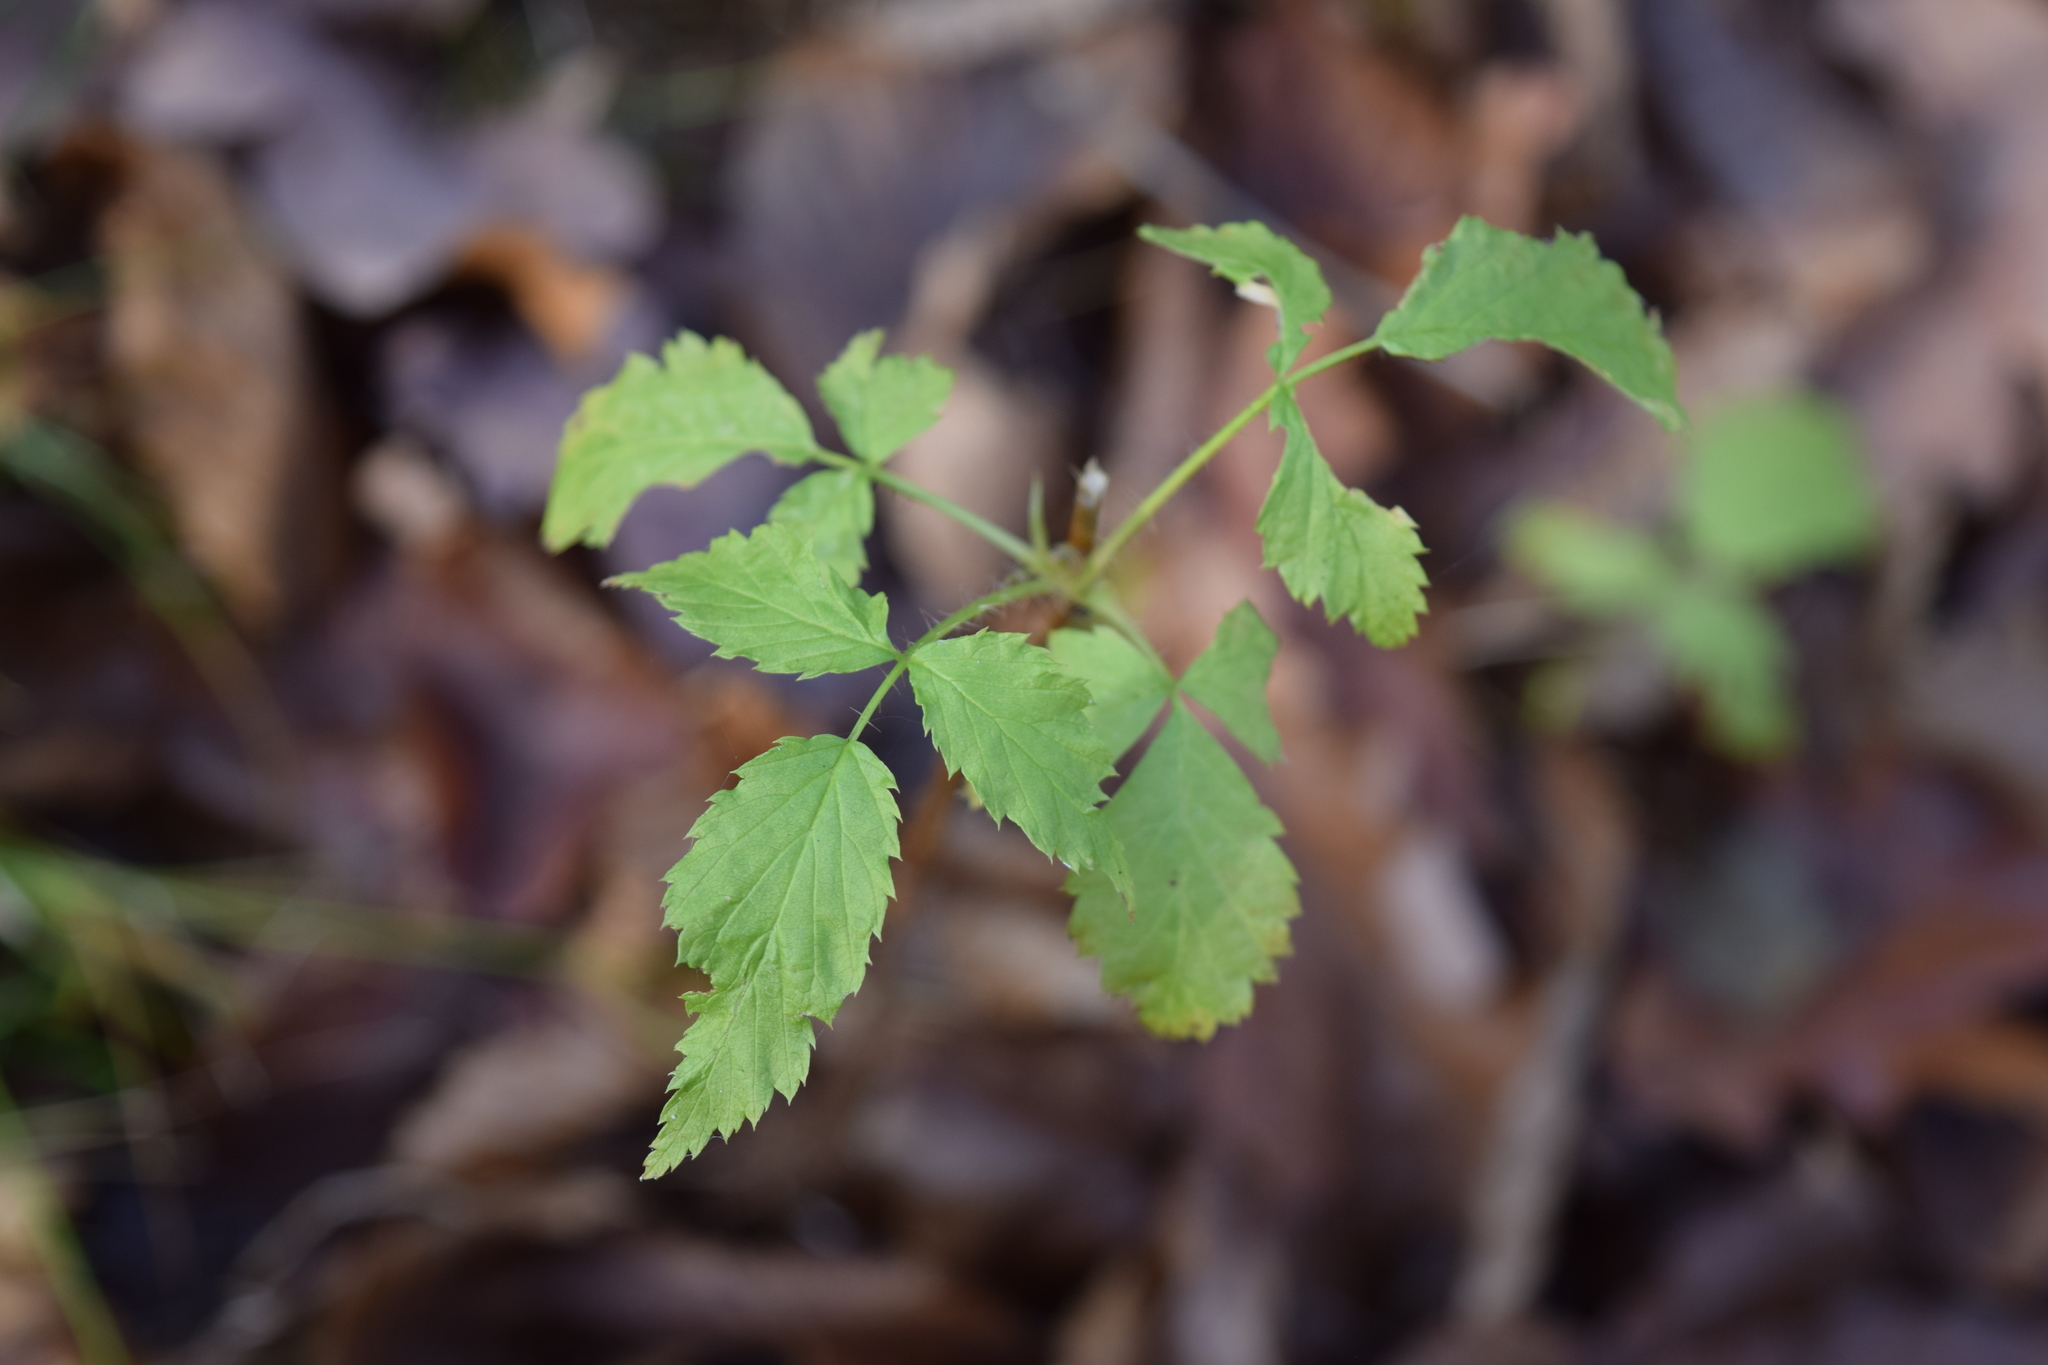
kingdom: Plantae
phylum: Tracheophyta
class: Magnoliopsida
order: Rosales
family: Rosaceae
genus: Rubus
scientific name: Rubus idaeus
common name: Raspberry
